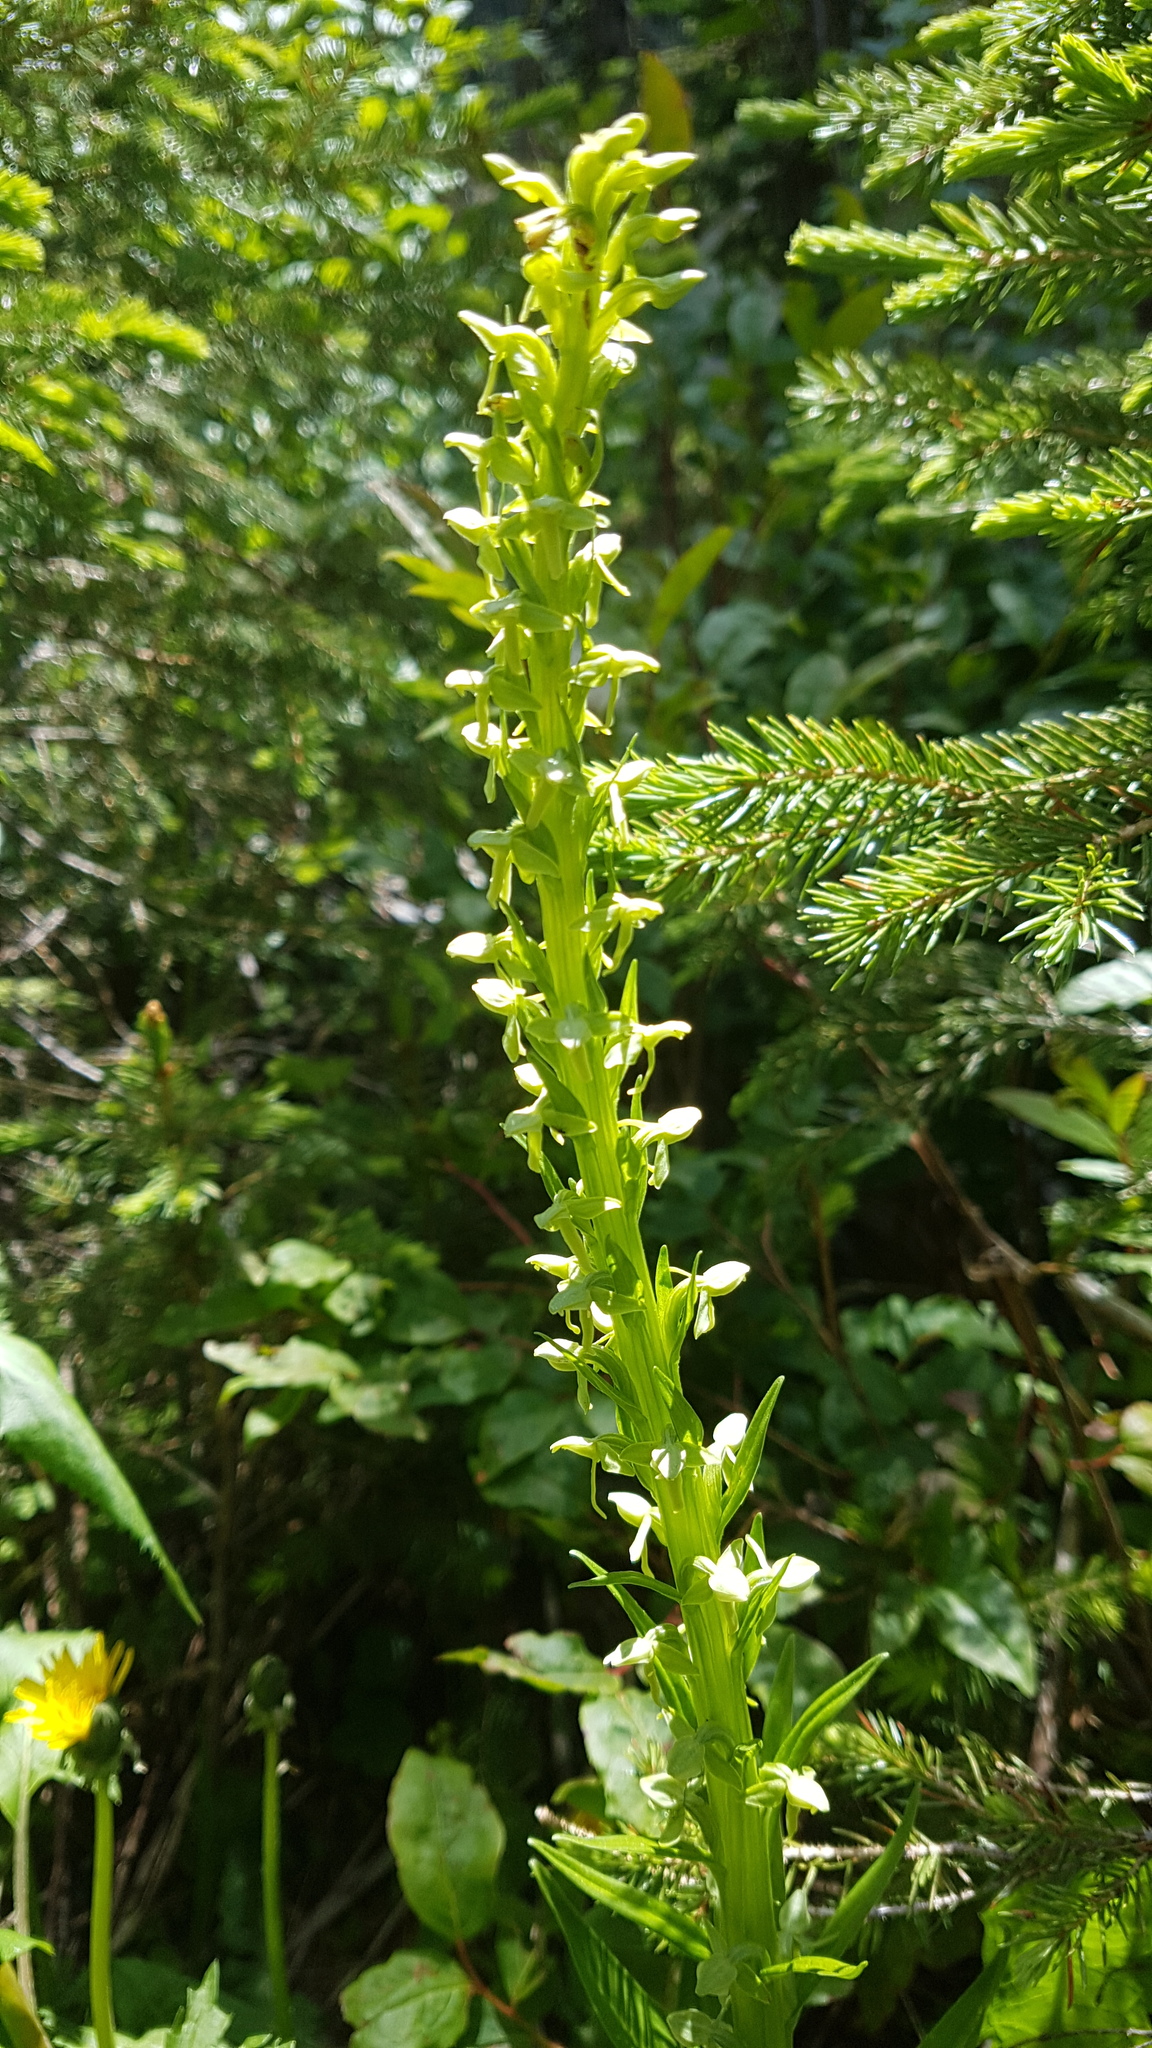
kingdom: Plantae
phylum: Tracheophyta
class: Liliopsida
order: Asparagales
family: Orchidaceae
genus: Platanthera
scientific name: Platanthera stricta
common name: Slender bog orchid
